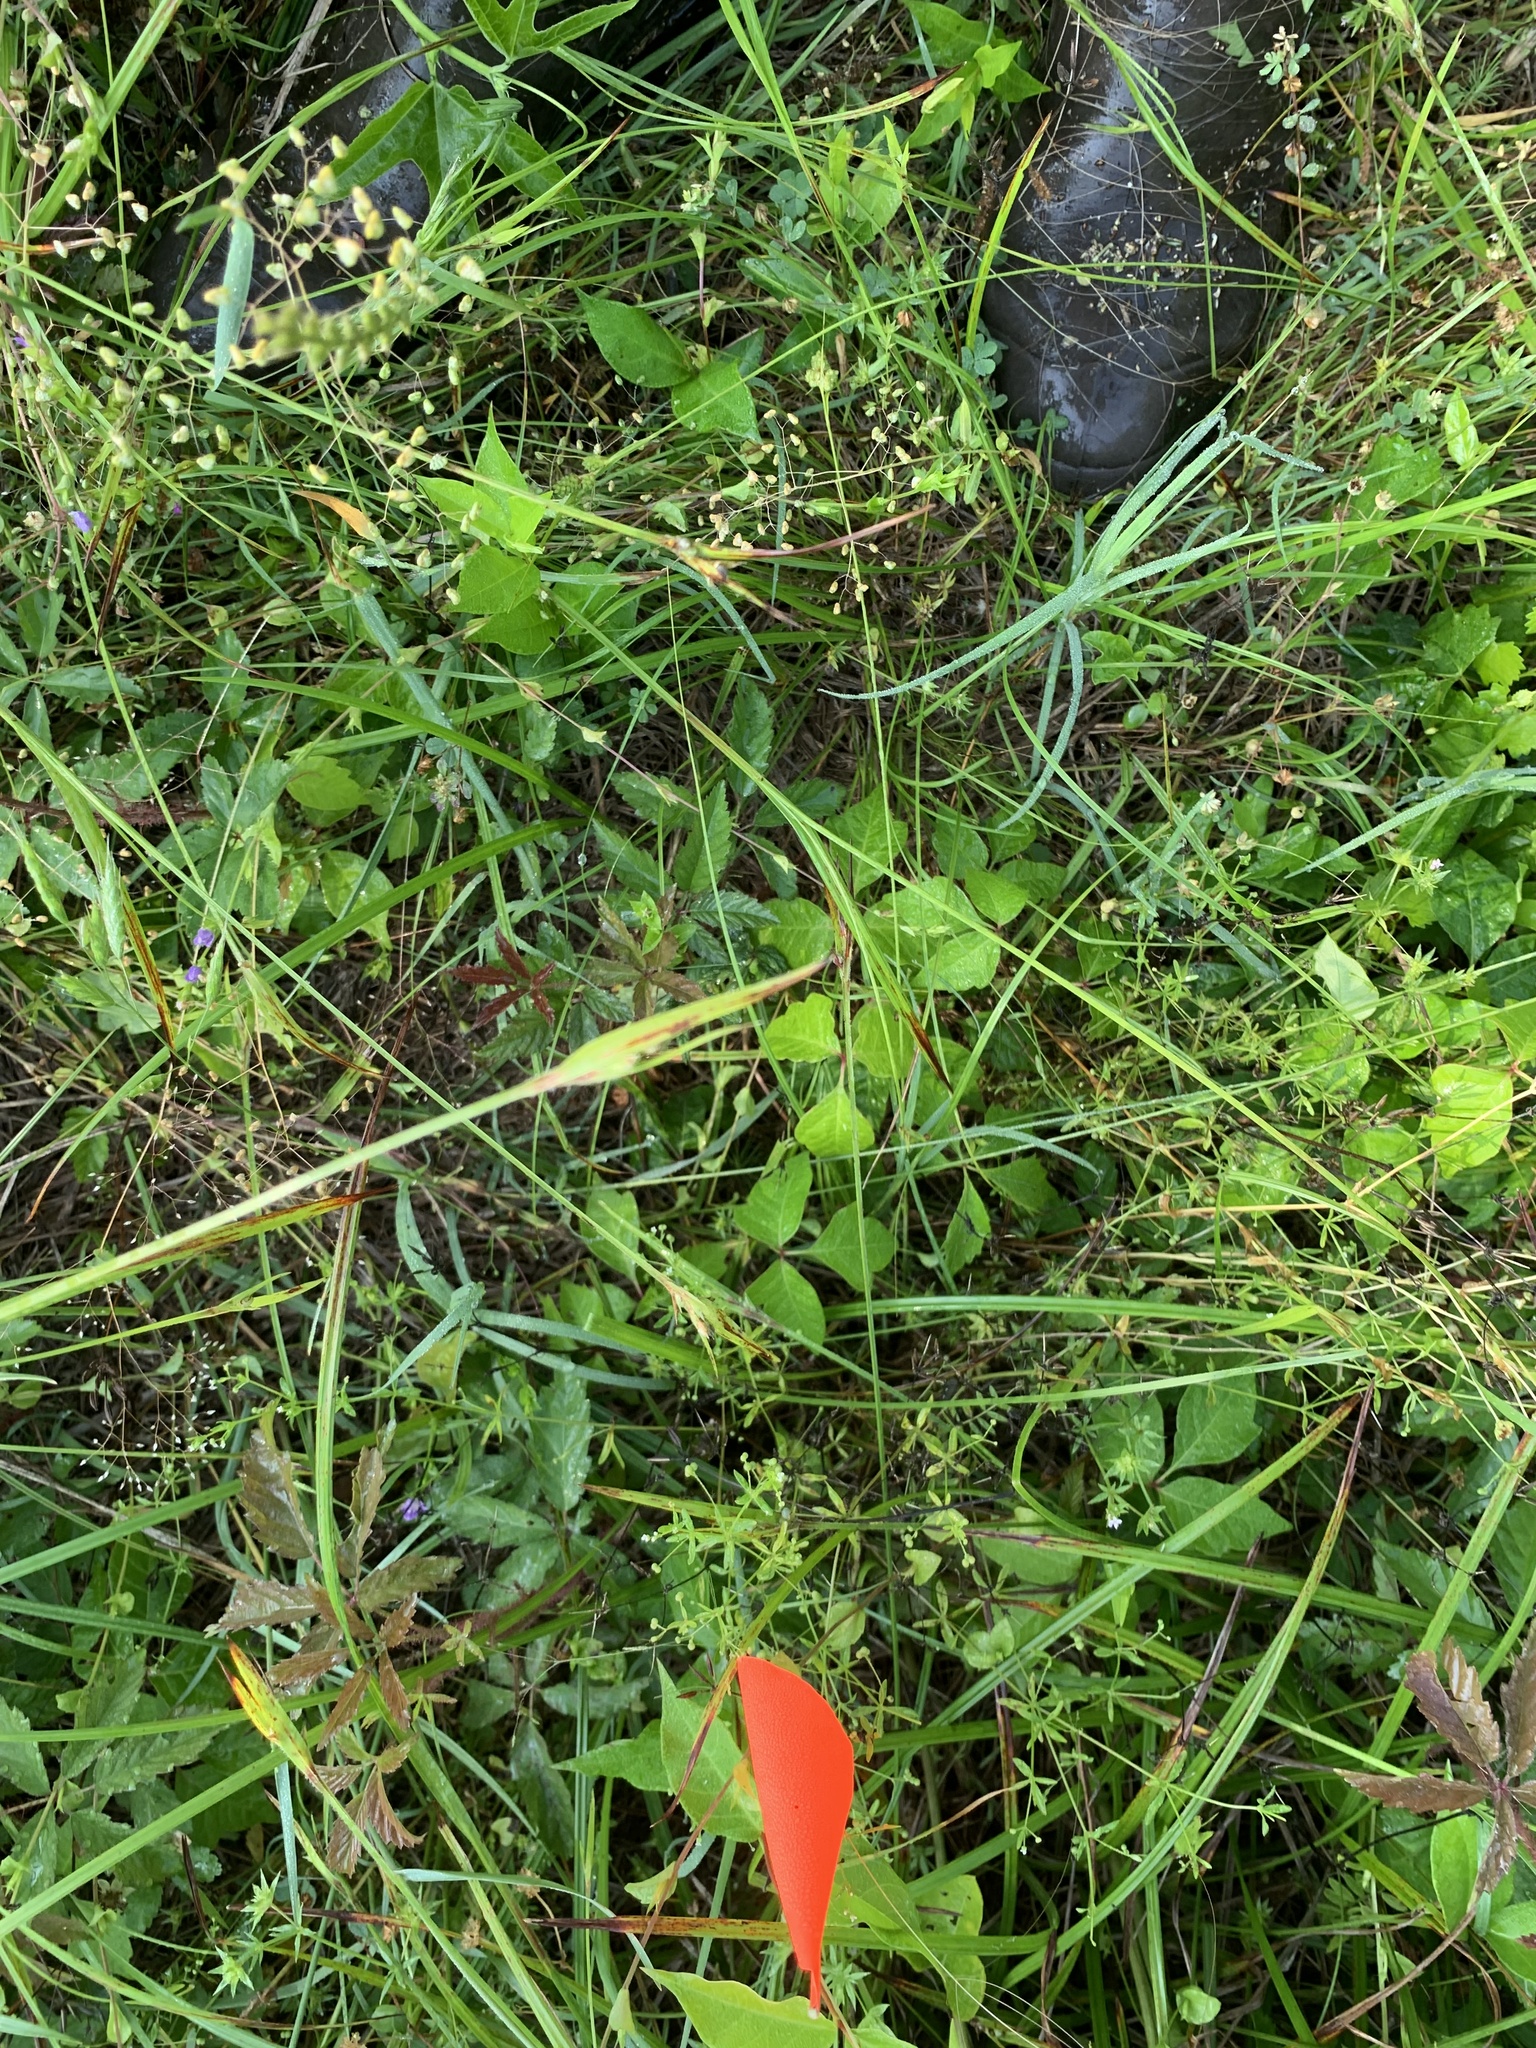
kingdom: Plantae
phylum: Tracheophyta
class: Magnoliopsida
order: Sapindales
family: Anacardiaceae
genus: Toxicodendron
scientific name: Toxicodendron radicans
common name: Poison ivy
